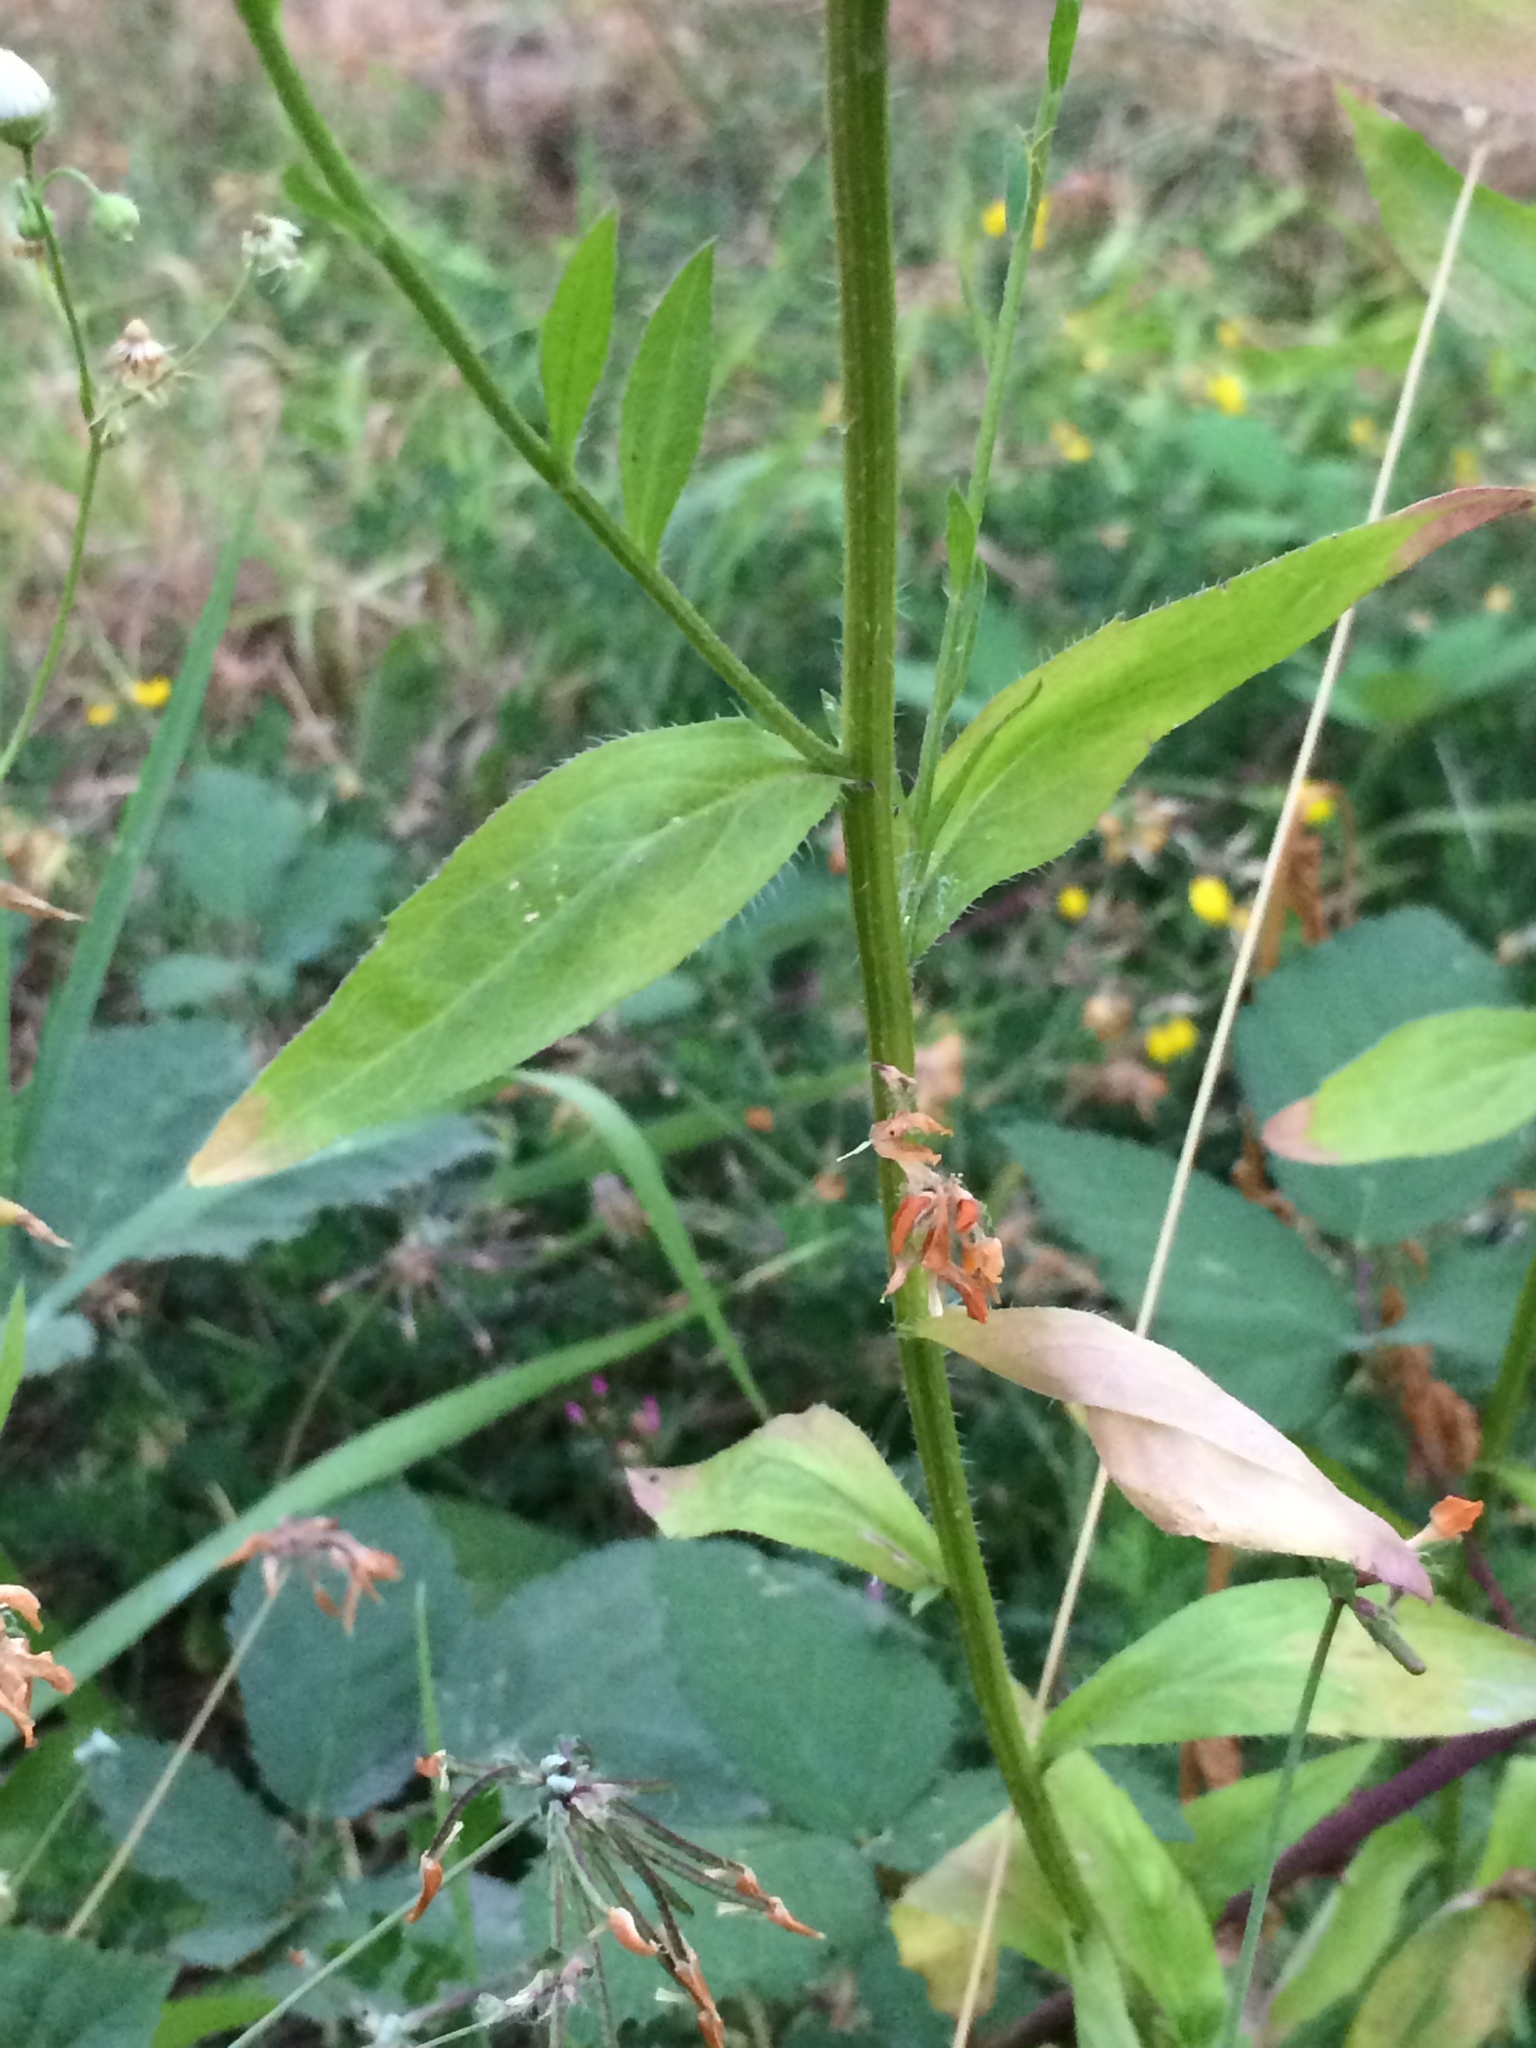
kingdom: Plantae
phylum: Tracheophyta
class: Magnoliopsida
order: Asterales
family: Asteraceae
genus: Erigeron
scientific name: Erigeron annuus
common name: Tall fleabane
